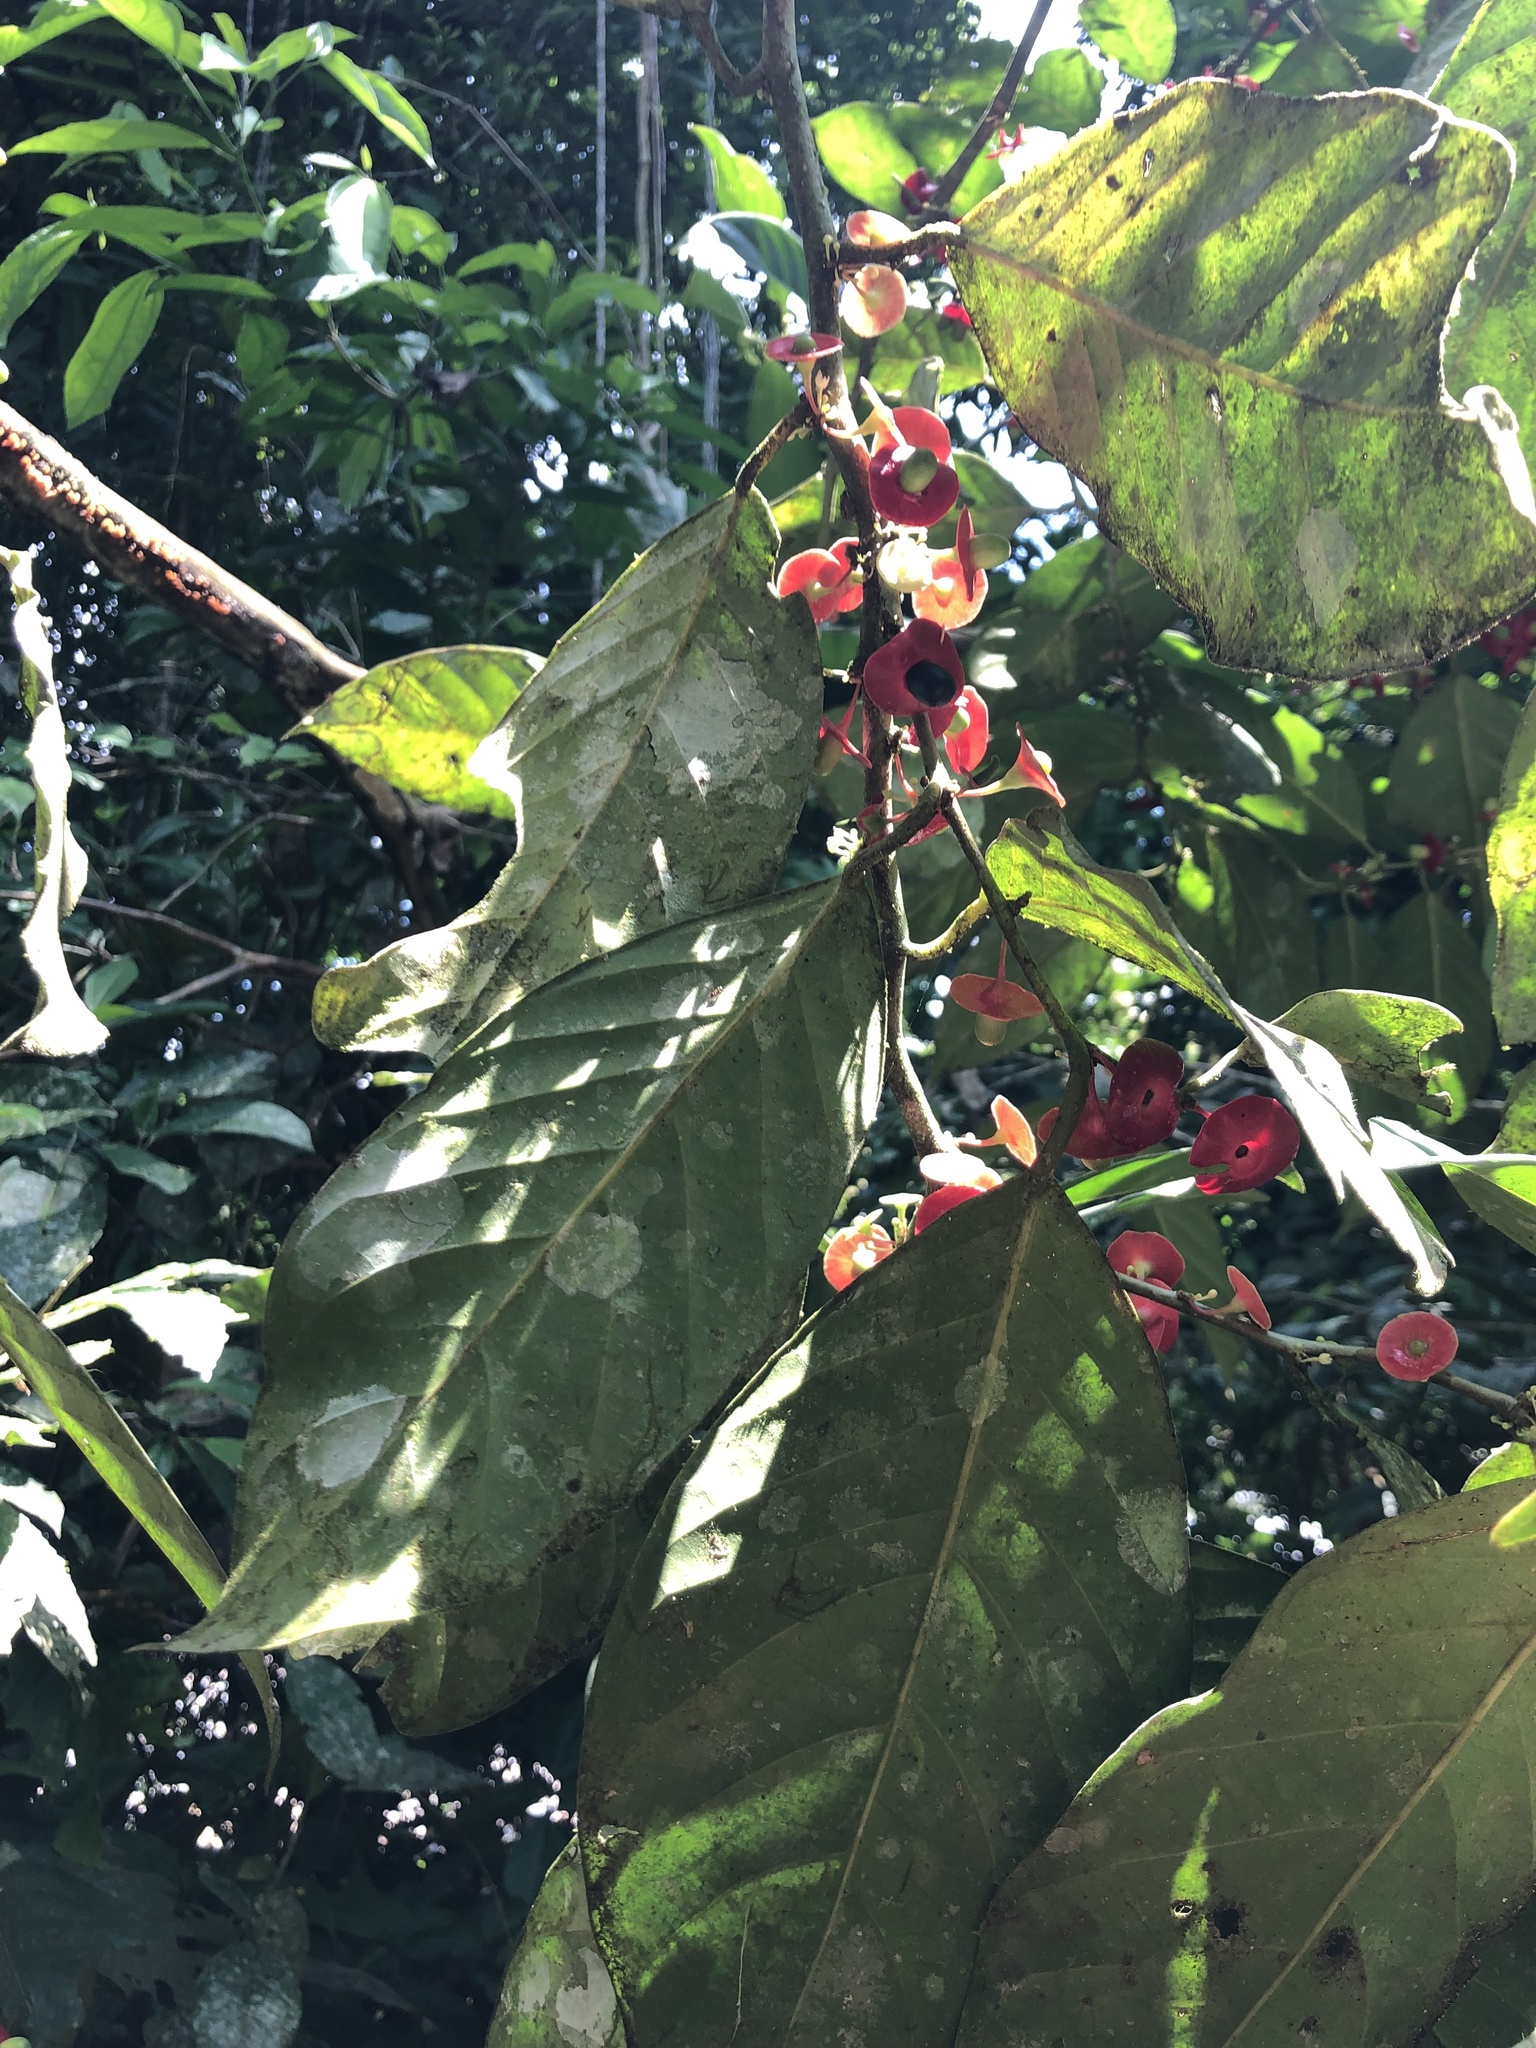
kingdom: Plantae
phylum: Tracheophyta
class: Magnoliopsida
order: Santalales
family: Erythropalaceae
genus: Heisteria
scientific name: Heisteria acuminata
